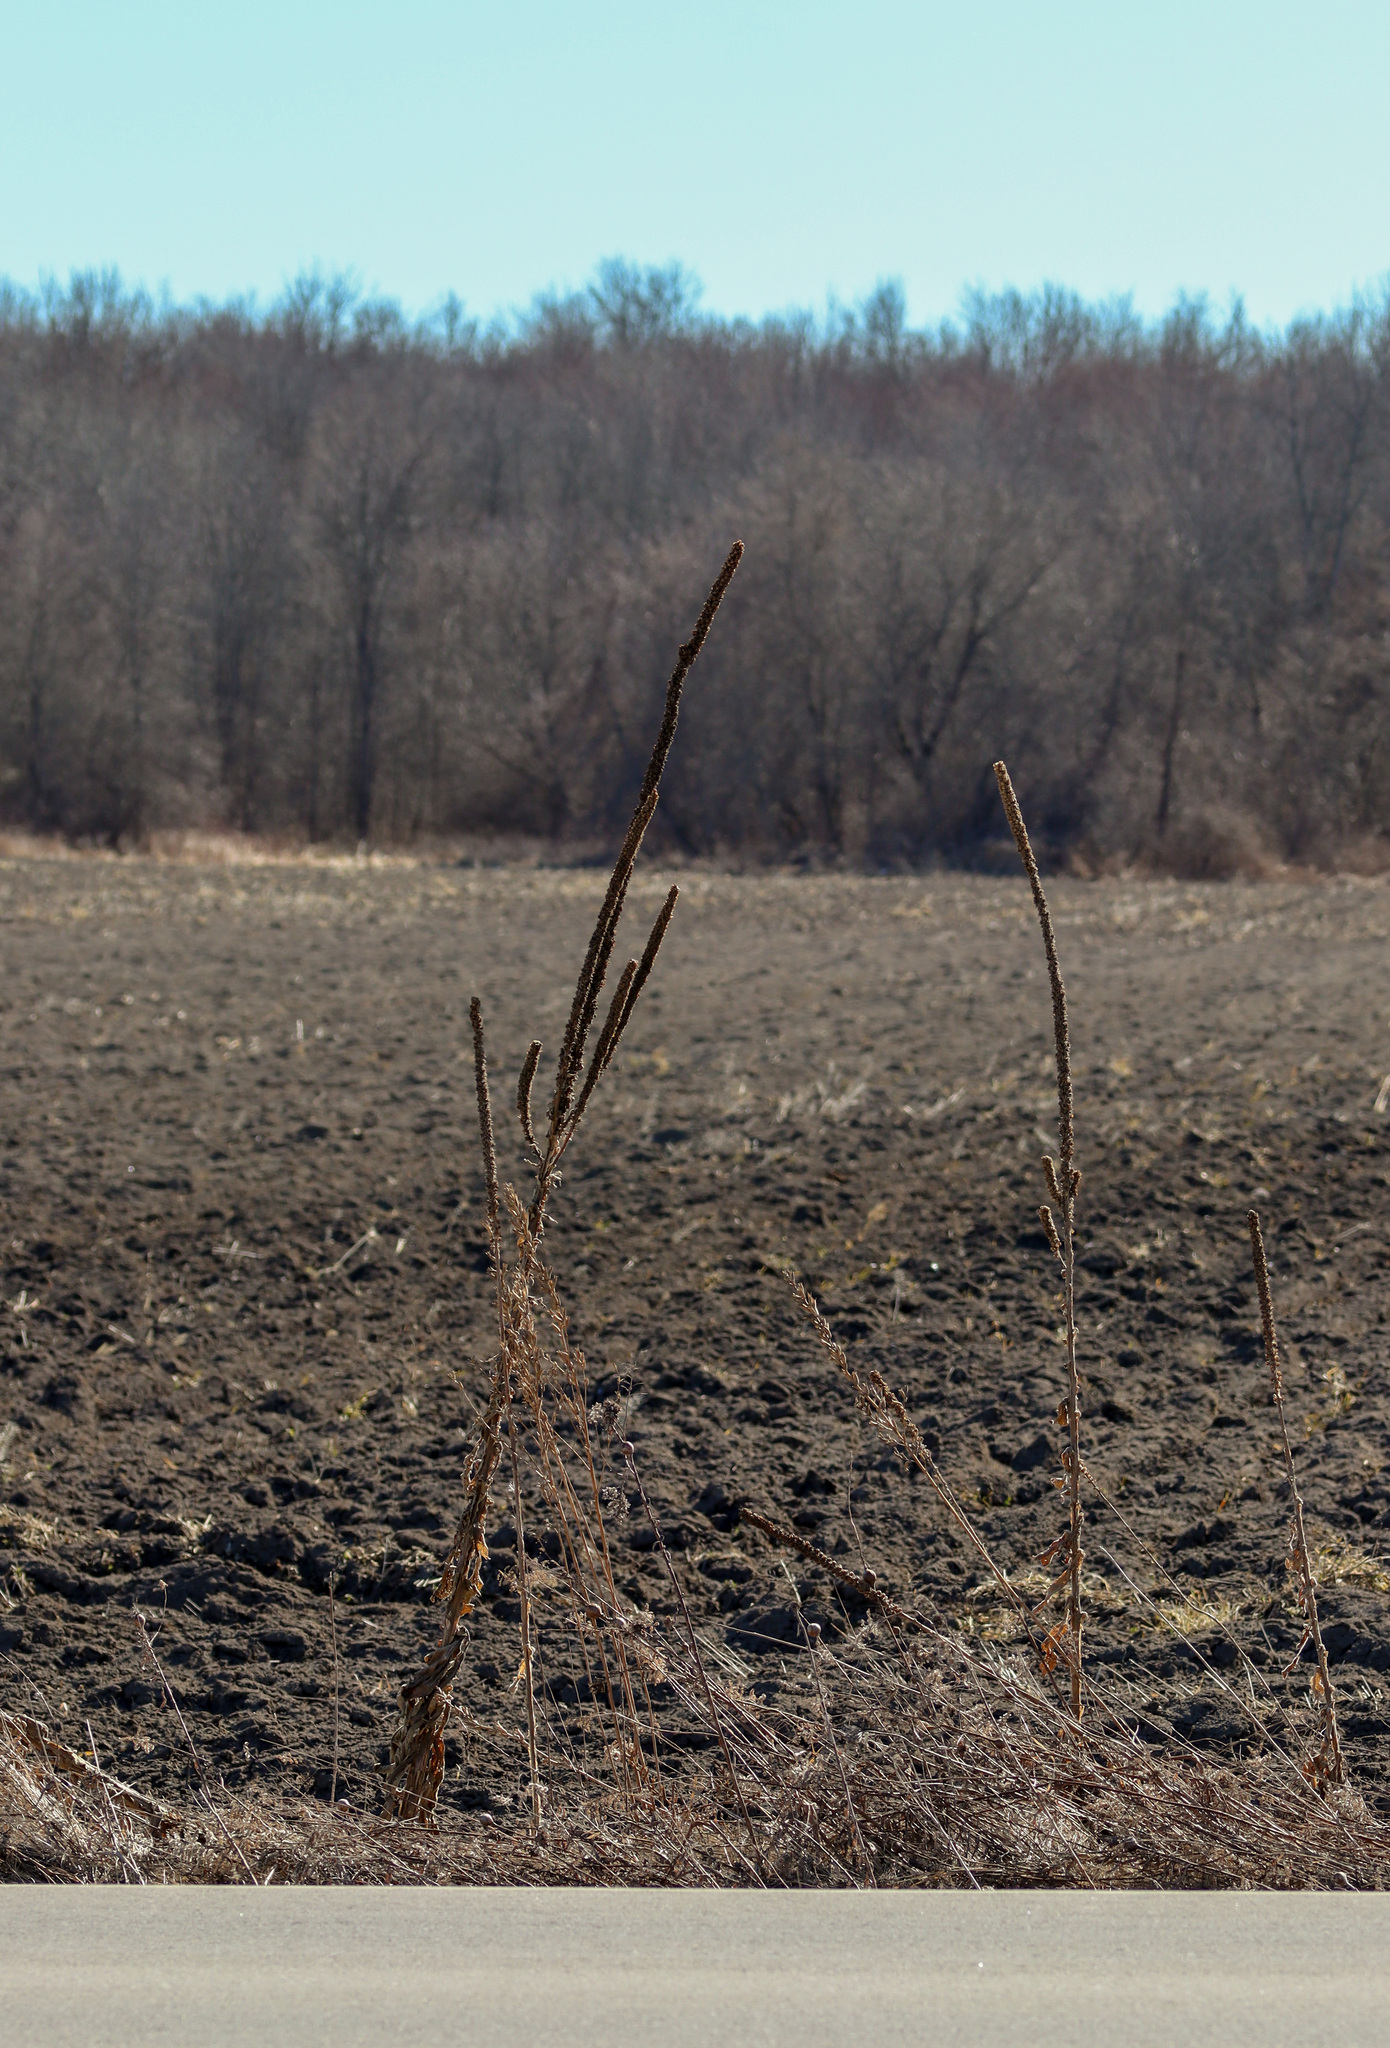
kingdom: Plantae
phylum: Tracheophyta
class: Magnoliopsida
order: Lamiales
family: Scrophulariaceae
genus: Verbascum
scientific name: Verbascum thapsus
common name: Common mullein
